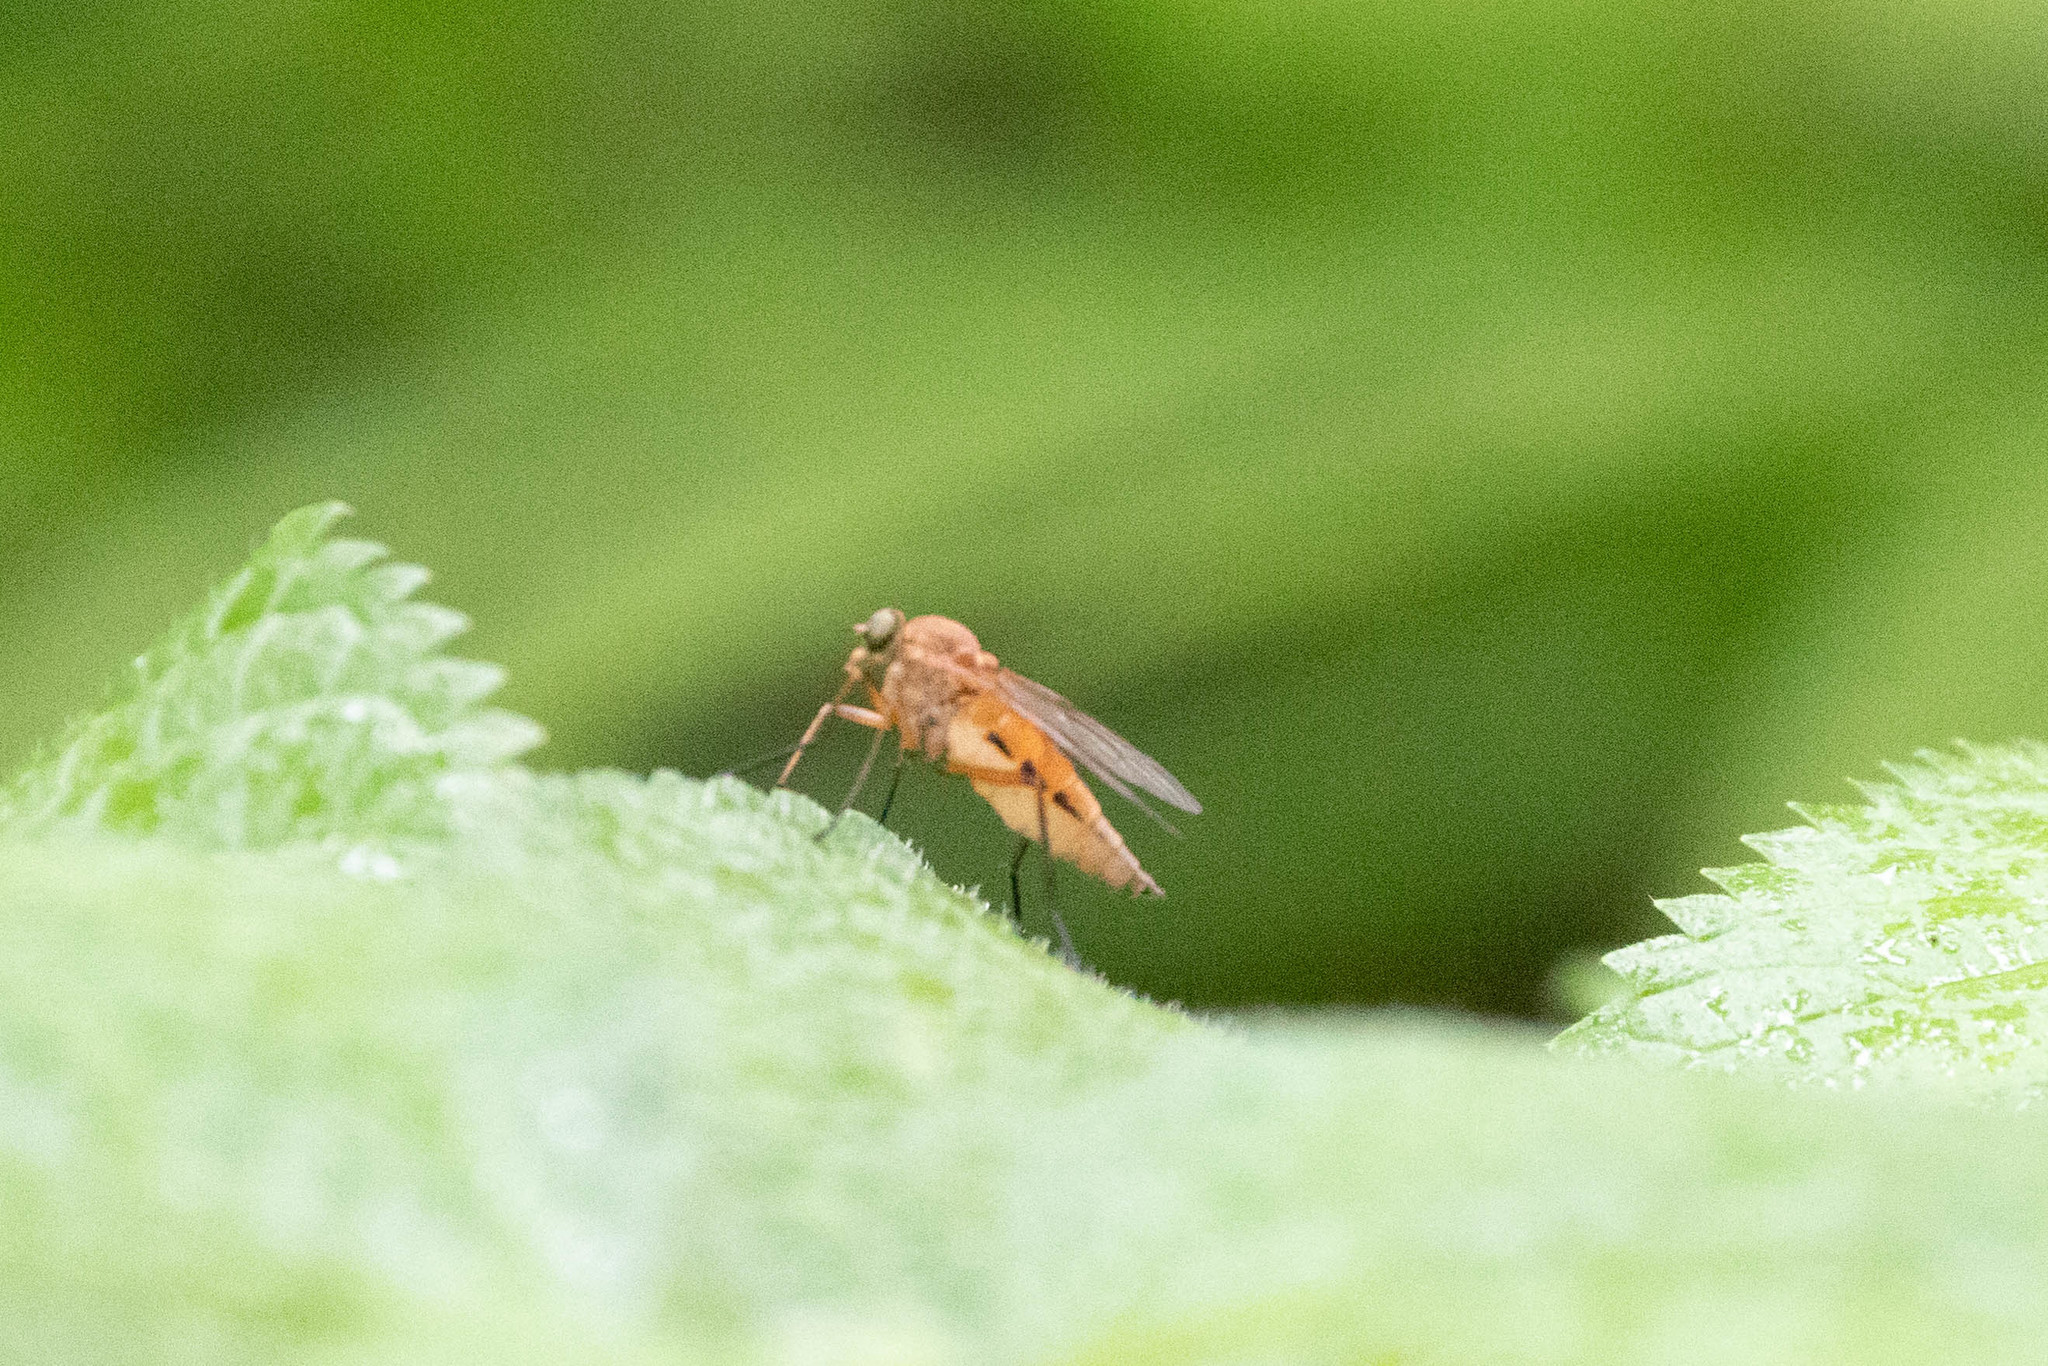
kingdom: Animalia
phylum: Arthropoda
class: Insecta
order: Diptera
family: Rhagionidae
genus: Rhagio
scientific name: Rhagio tringaria
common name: Marsh snipefly
